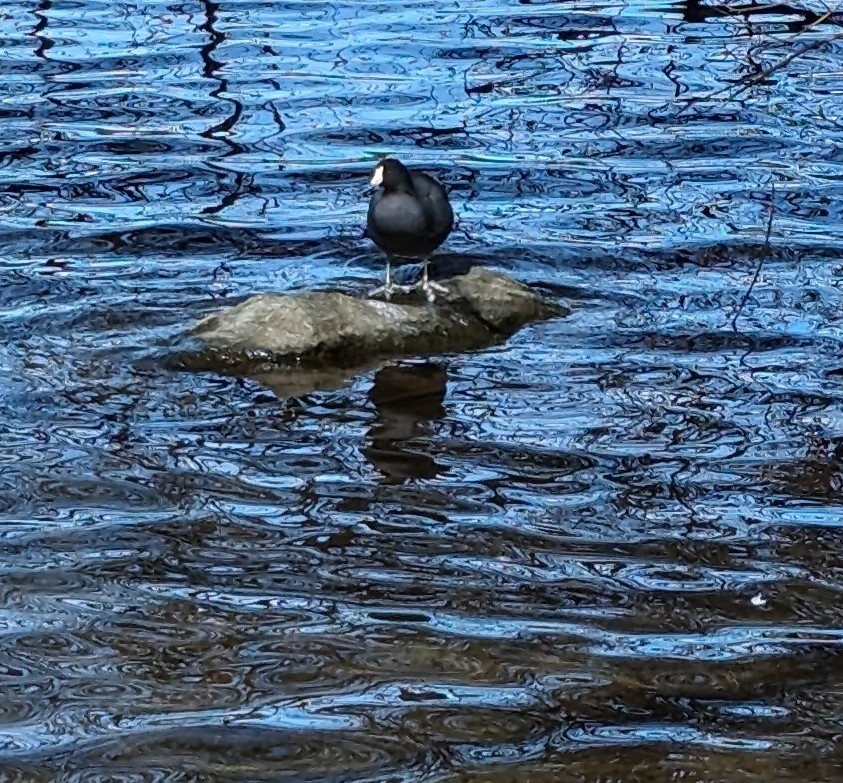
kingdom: Animalia
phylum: Chordata
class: Aves
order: Gruiformes
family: Rallidae
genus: Fulica
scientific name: Fulica americana
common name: American coot
